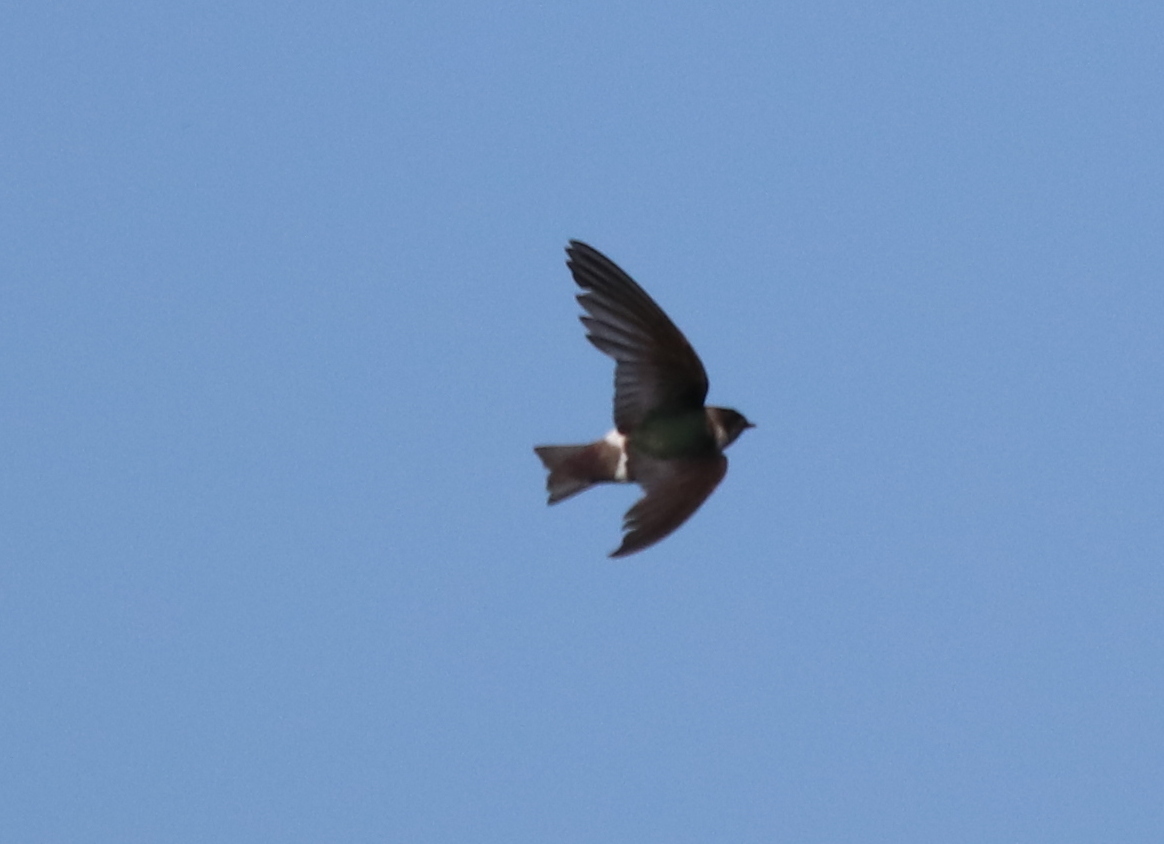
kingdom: Animalia
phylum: Chordata
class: Aves
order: Passeriformes
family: Hirundinidae
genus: Tachycineta
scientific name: Tachycineta thalassina
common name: Violet-green swallow
